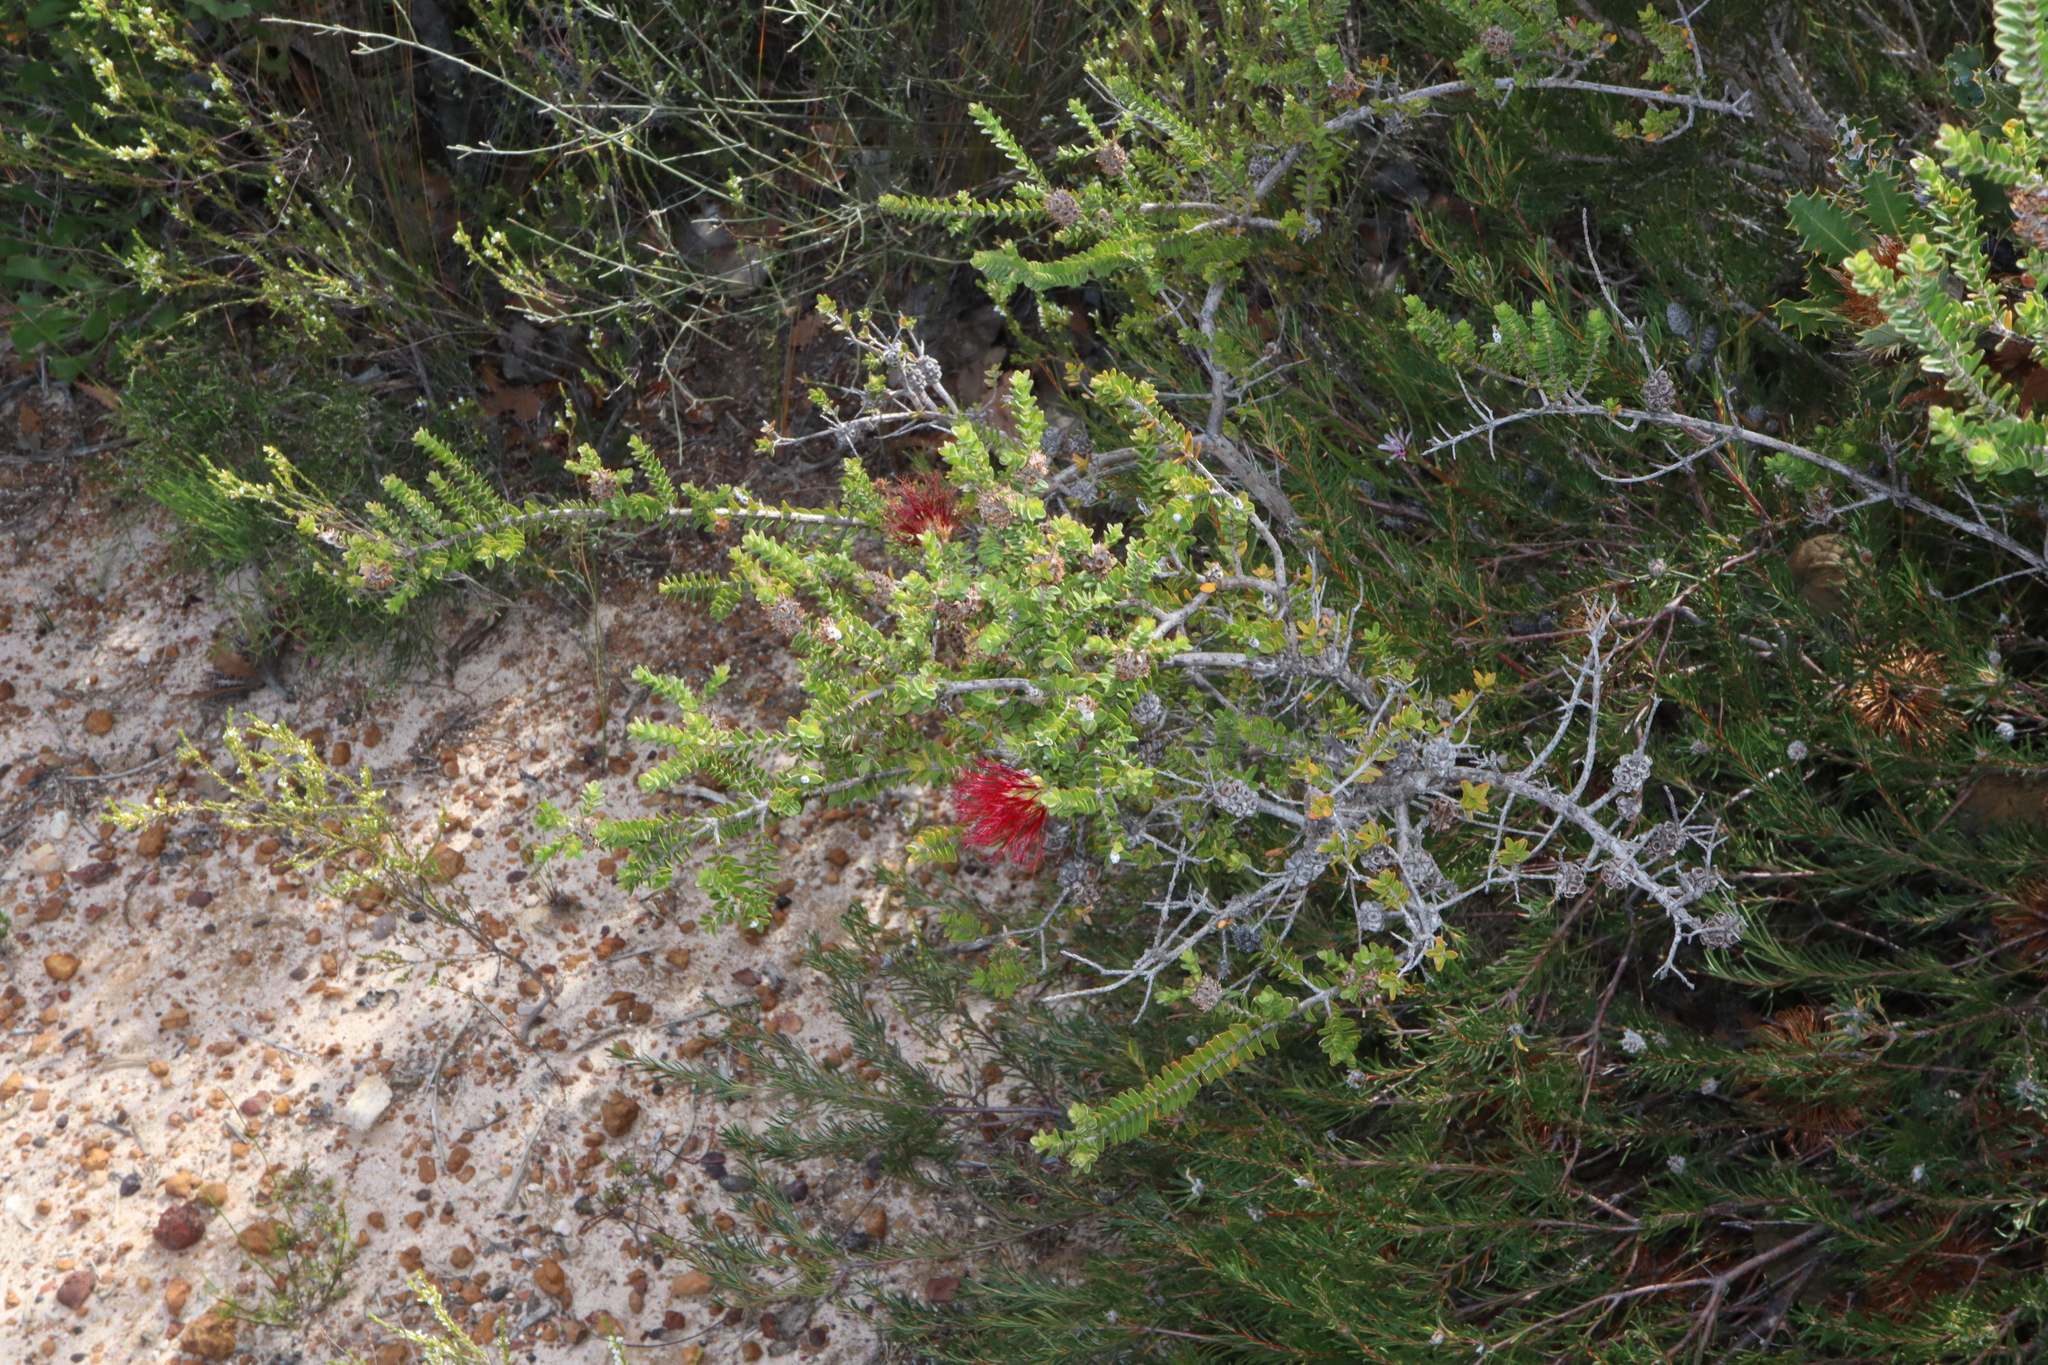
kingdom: Plantae
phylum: Tracheophyta
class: Magnoliopsida
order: Myrtales
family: Myrtaceae
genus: Melaleuca
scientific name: Melaleuca anisandra
